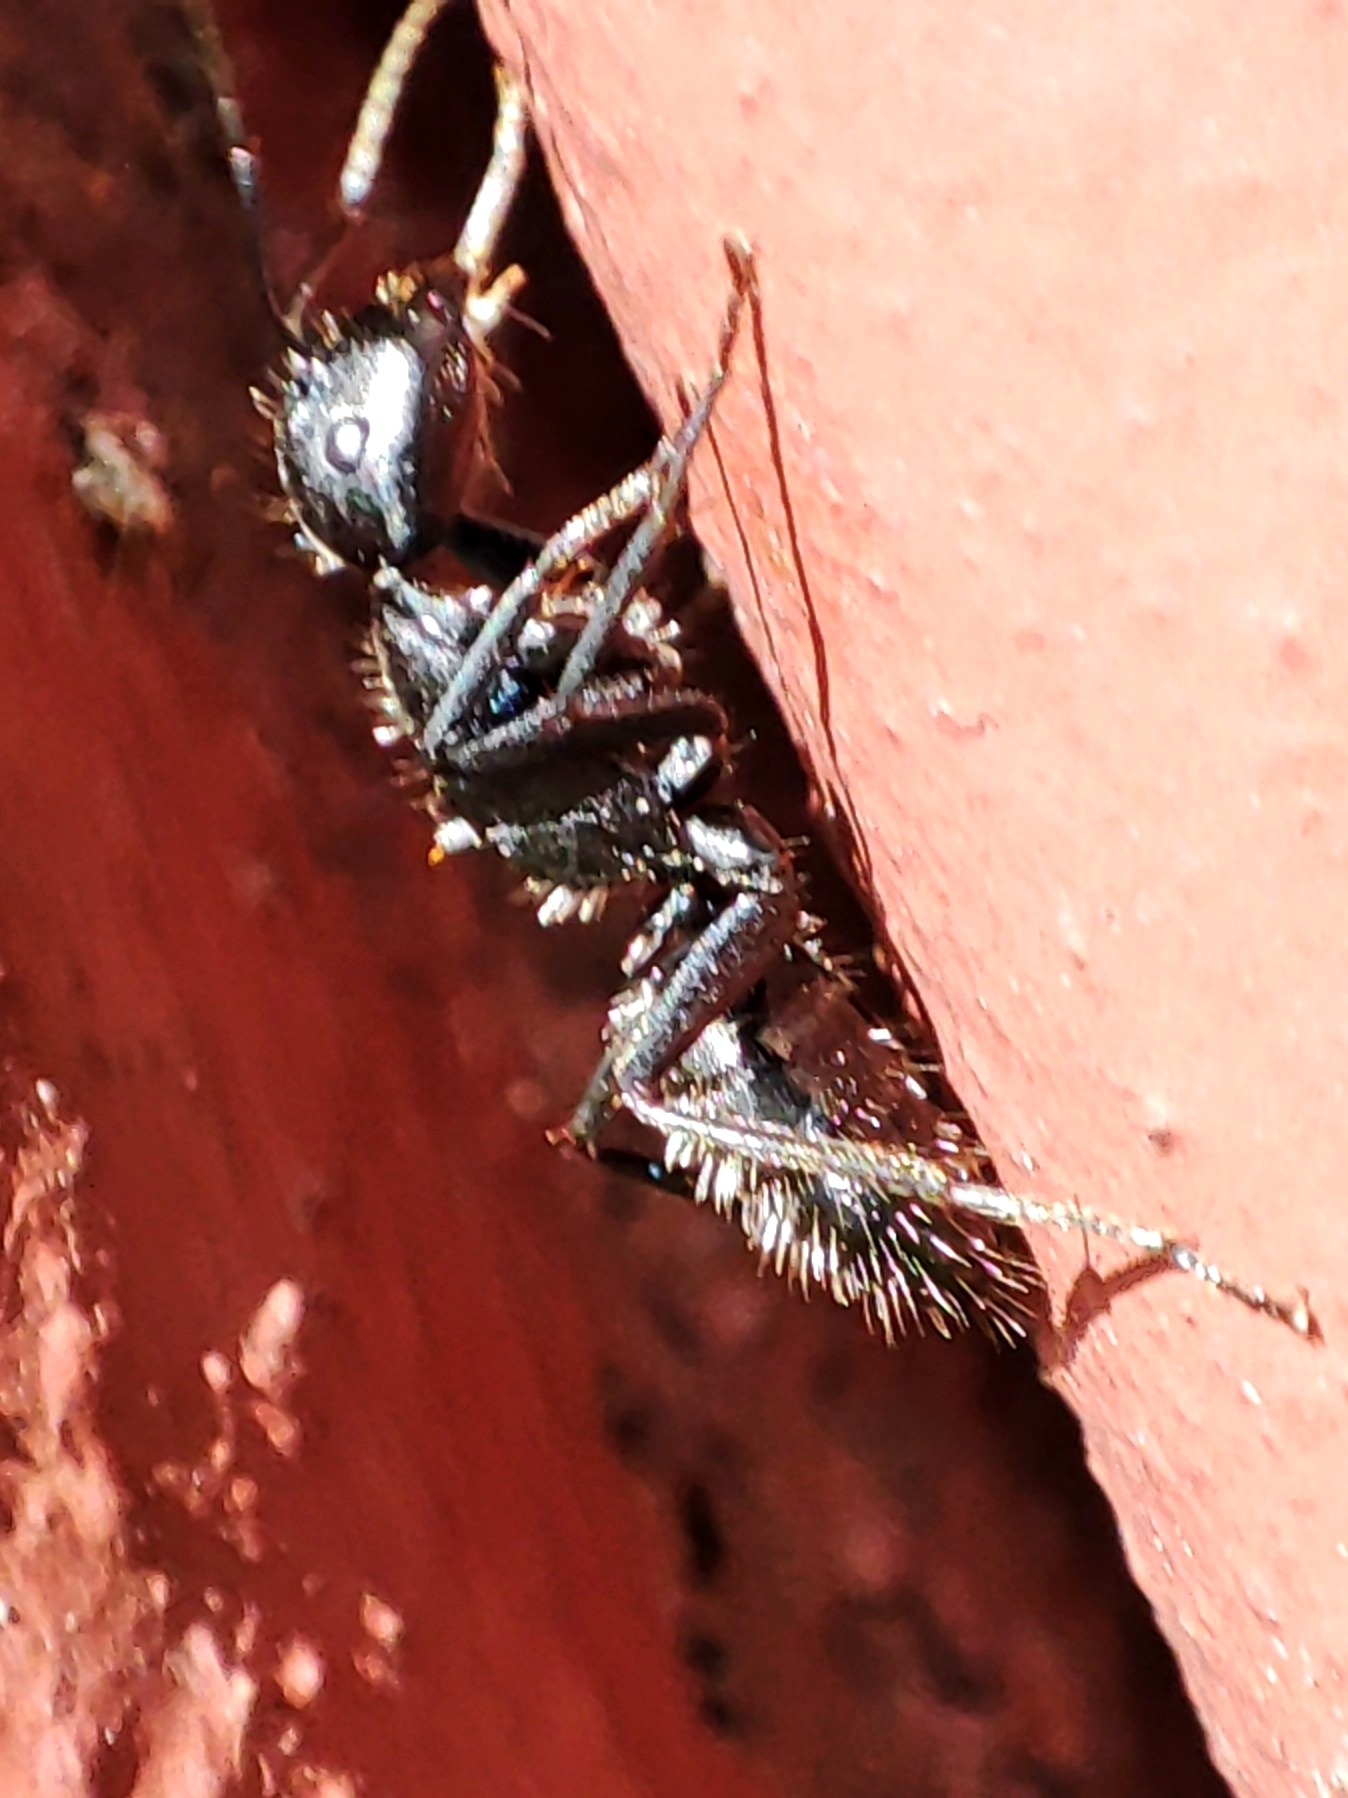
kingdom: Animalia
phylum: Arthropoda
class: Insecta
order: Hymenoptera
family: Formicidae
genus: Camponotus
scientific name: Camponotus vagus
